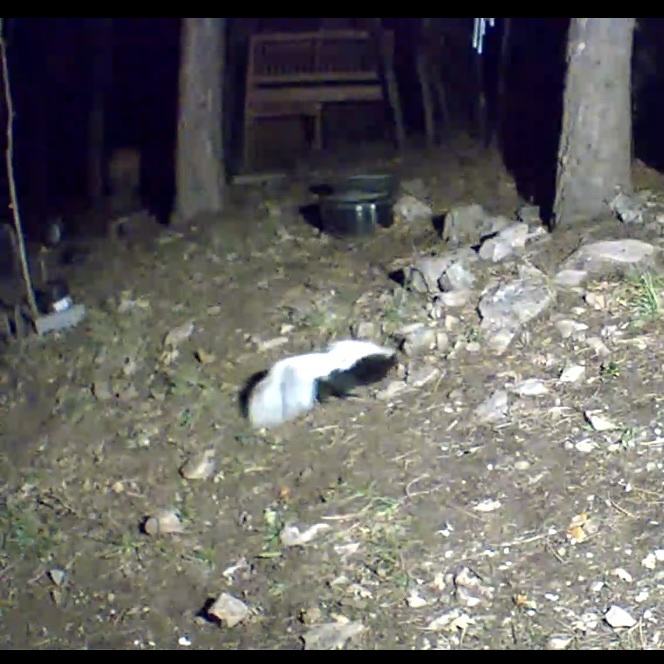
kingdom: Animalia
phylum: Chordata
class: Mammalia
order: Carnivora
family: Mephitidae
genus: Mephitis
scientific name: Mephitis mephitis
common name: Striped skunk
